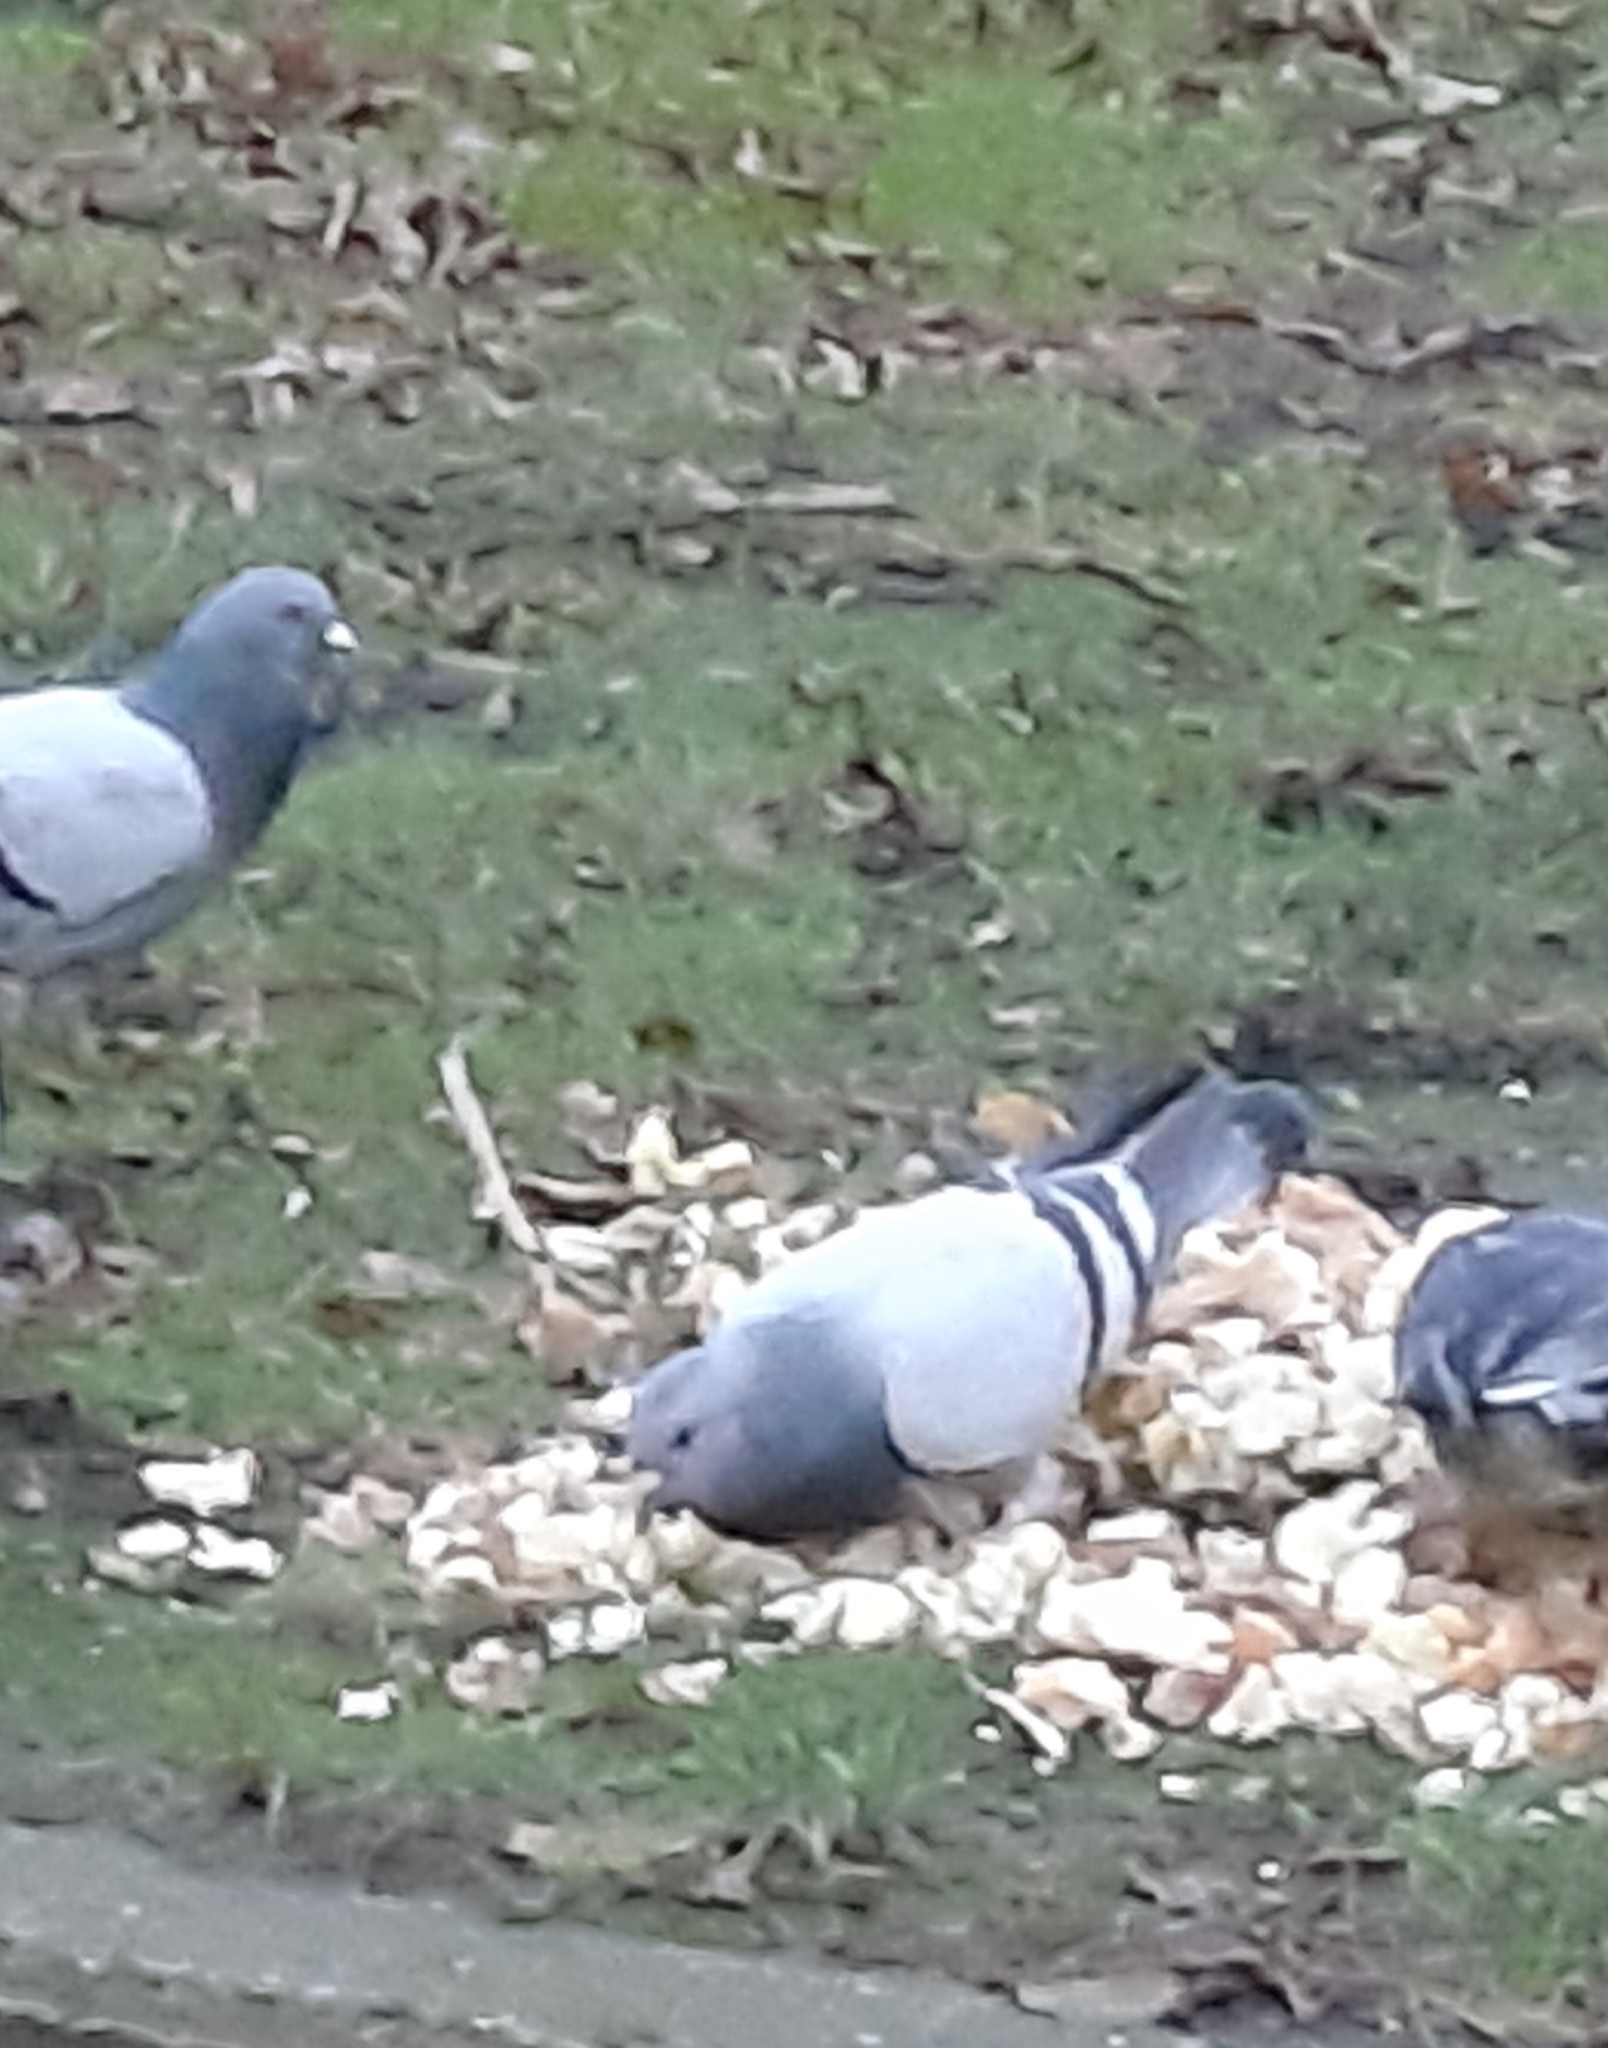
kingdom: Animalia
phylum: Chordata
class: Aves
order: Columbiformes
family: Columbidae
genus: Columba
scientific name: Columba livia
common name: Rock pigeon
